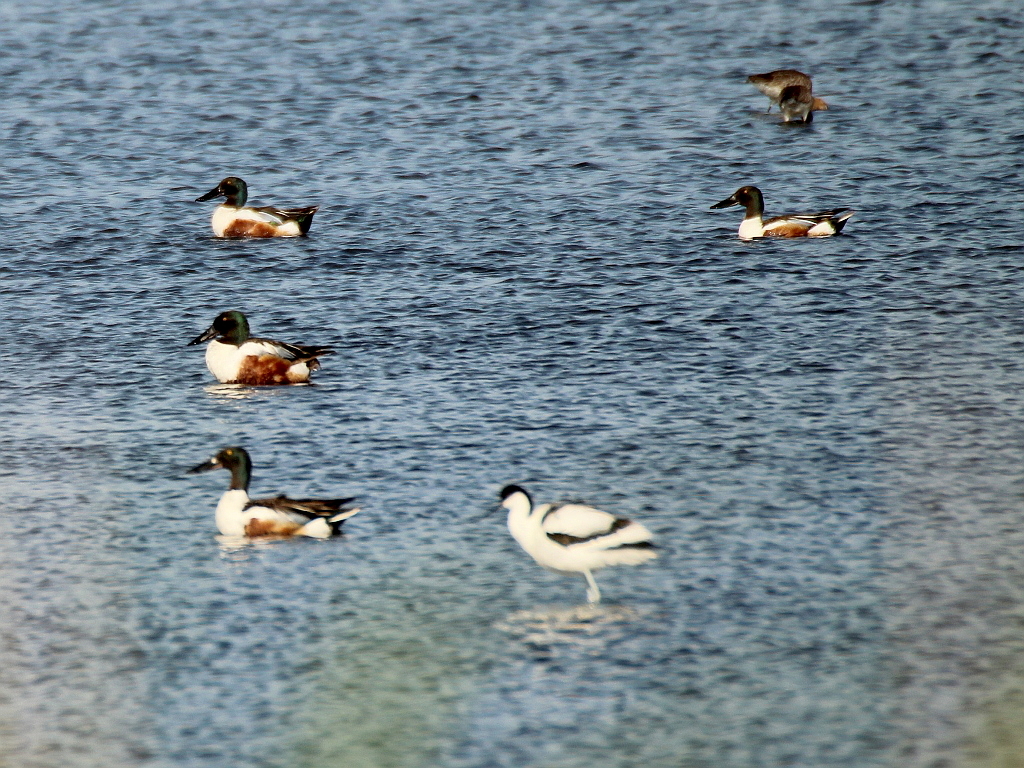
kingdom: Animalia
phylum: Chordata
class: Aves
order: Anseriformes
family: Anatidae
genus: Spatula
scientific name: Spatula clypeata
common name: Northern shoveler
